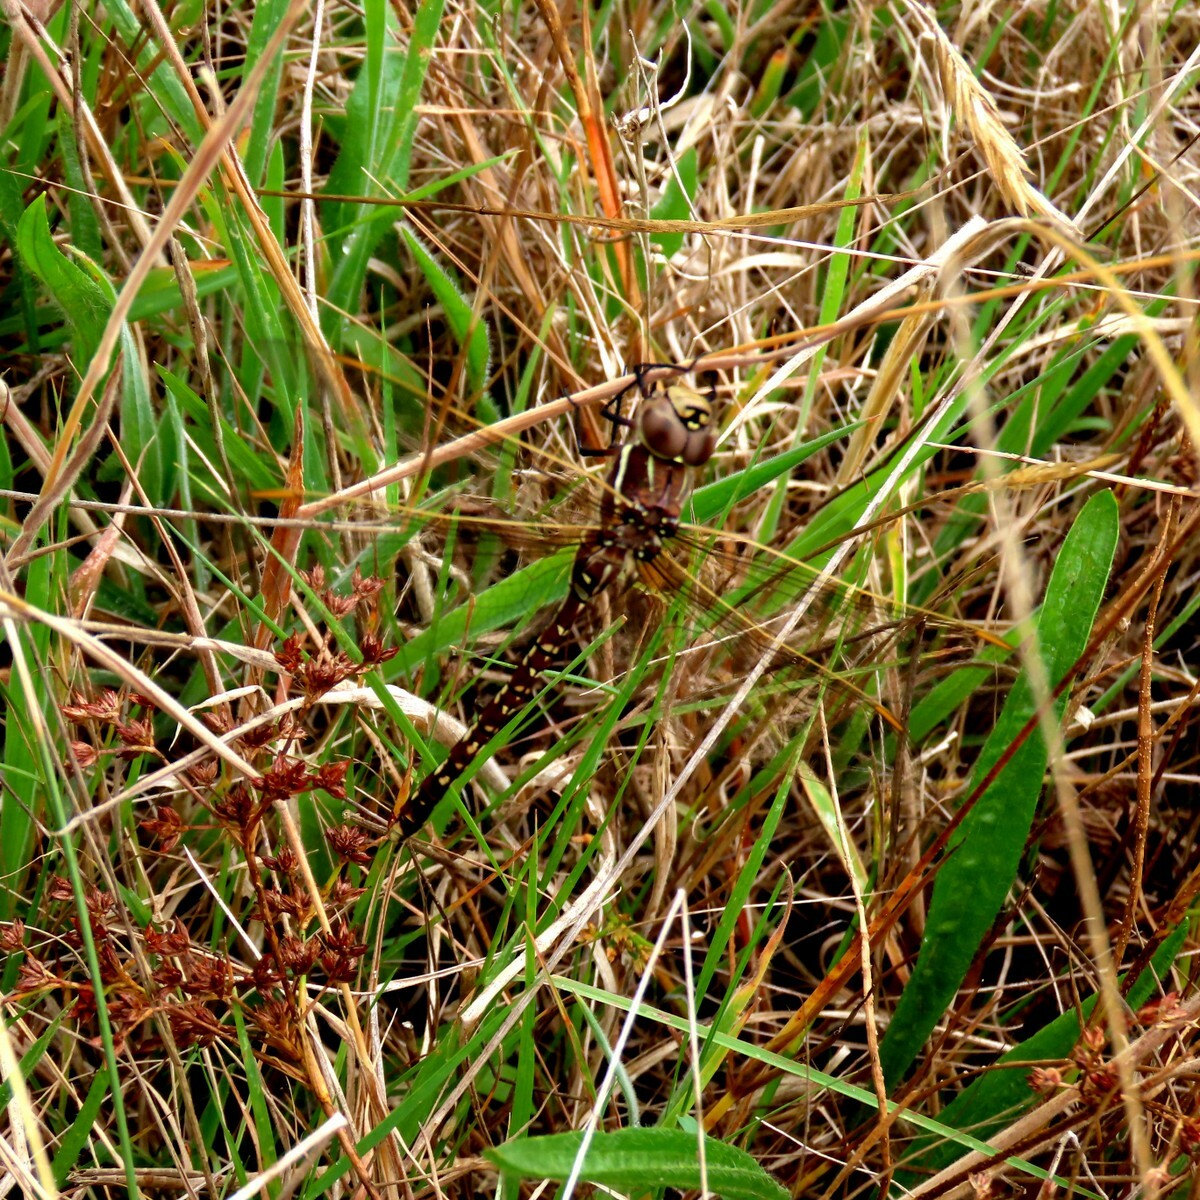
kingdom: Animalia
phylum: Arthropoda
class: Insecta
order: Odonata
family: Aeshnidae
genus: Aeshna
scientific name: Aeshna brevistyla
